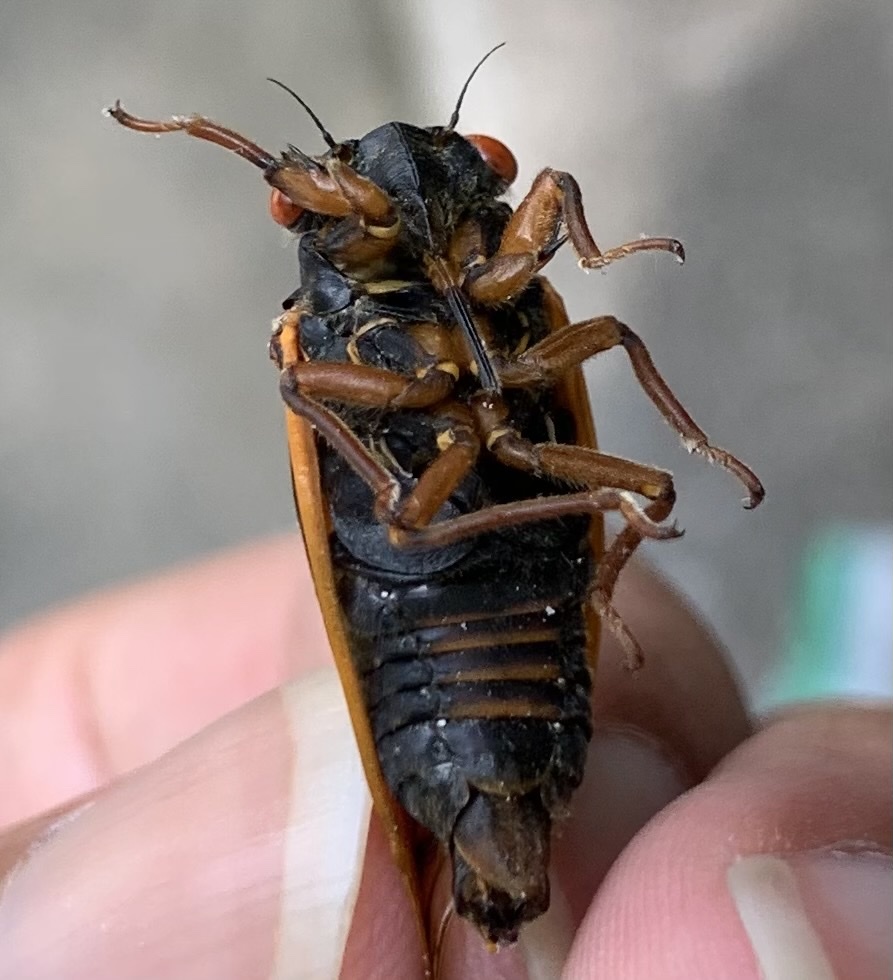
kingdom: Animalia
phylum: Arthropoda
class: Insecta
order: Hemiptera
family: Cicadidae
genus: Magicicada
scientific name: Magicicada septendecula
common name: Decula periodical cicada
